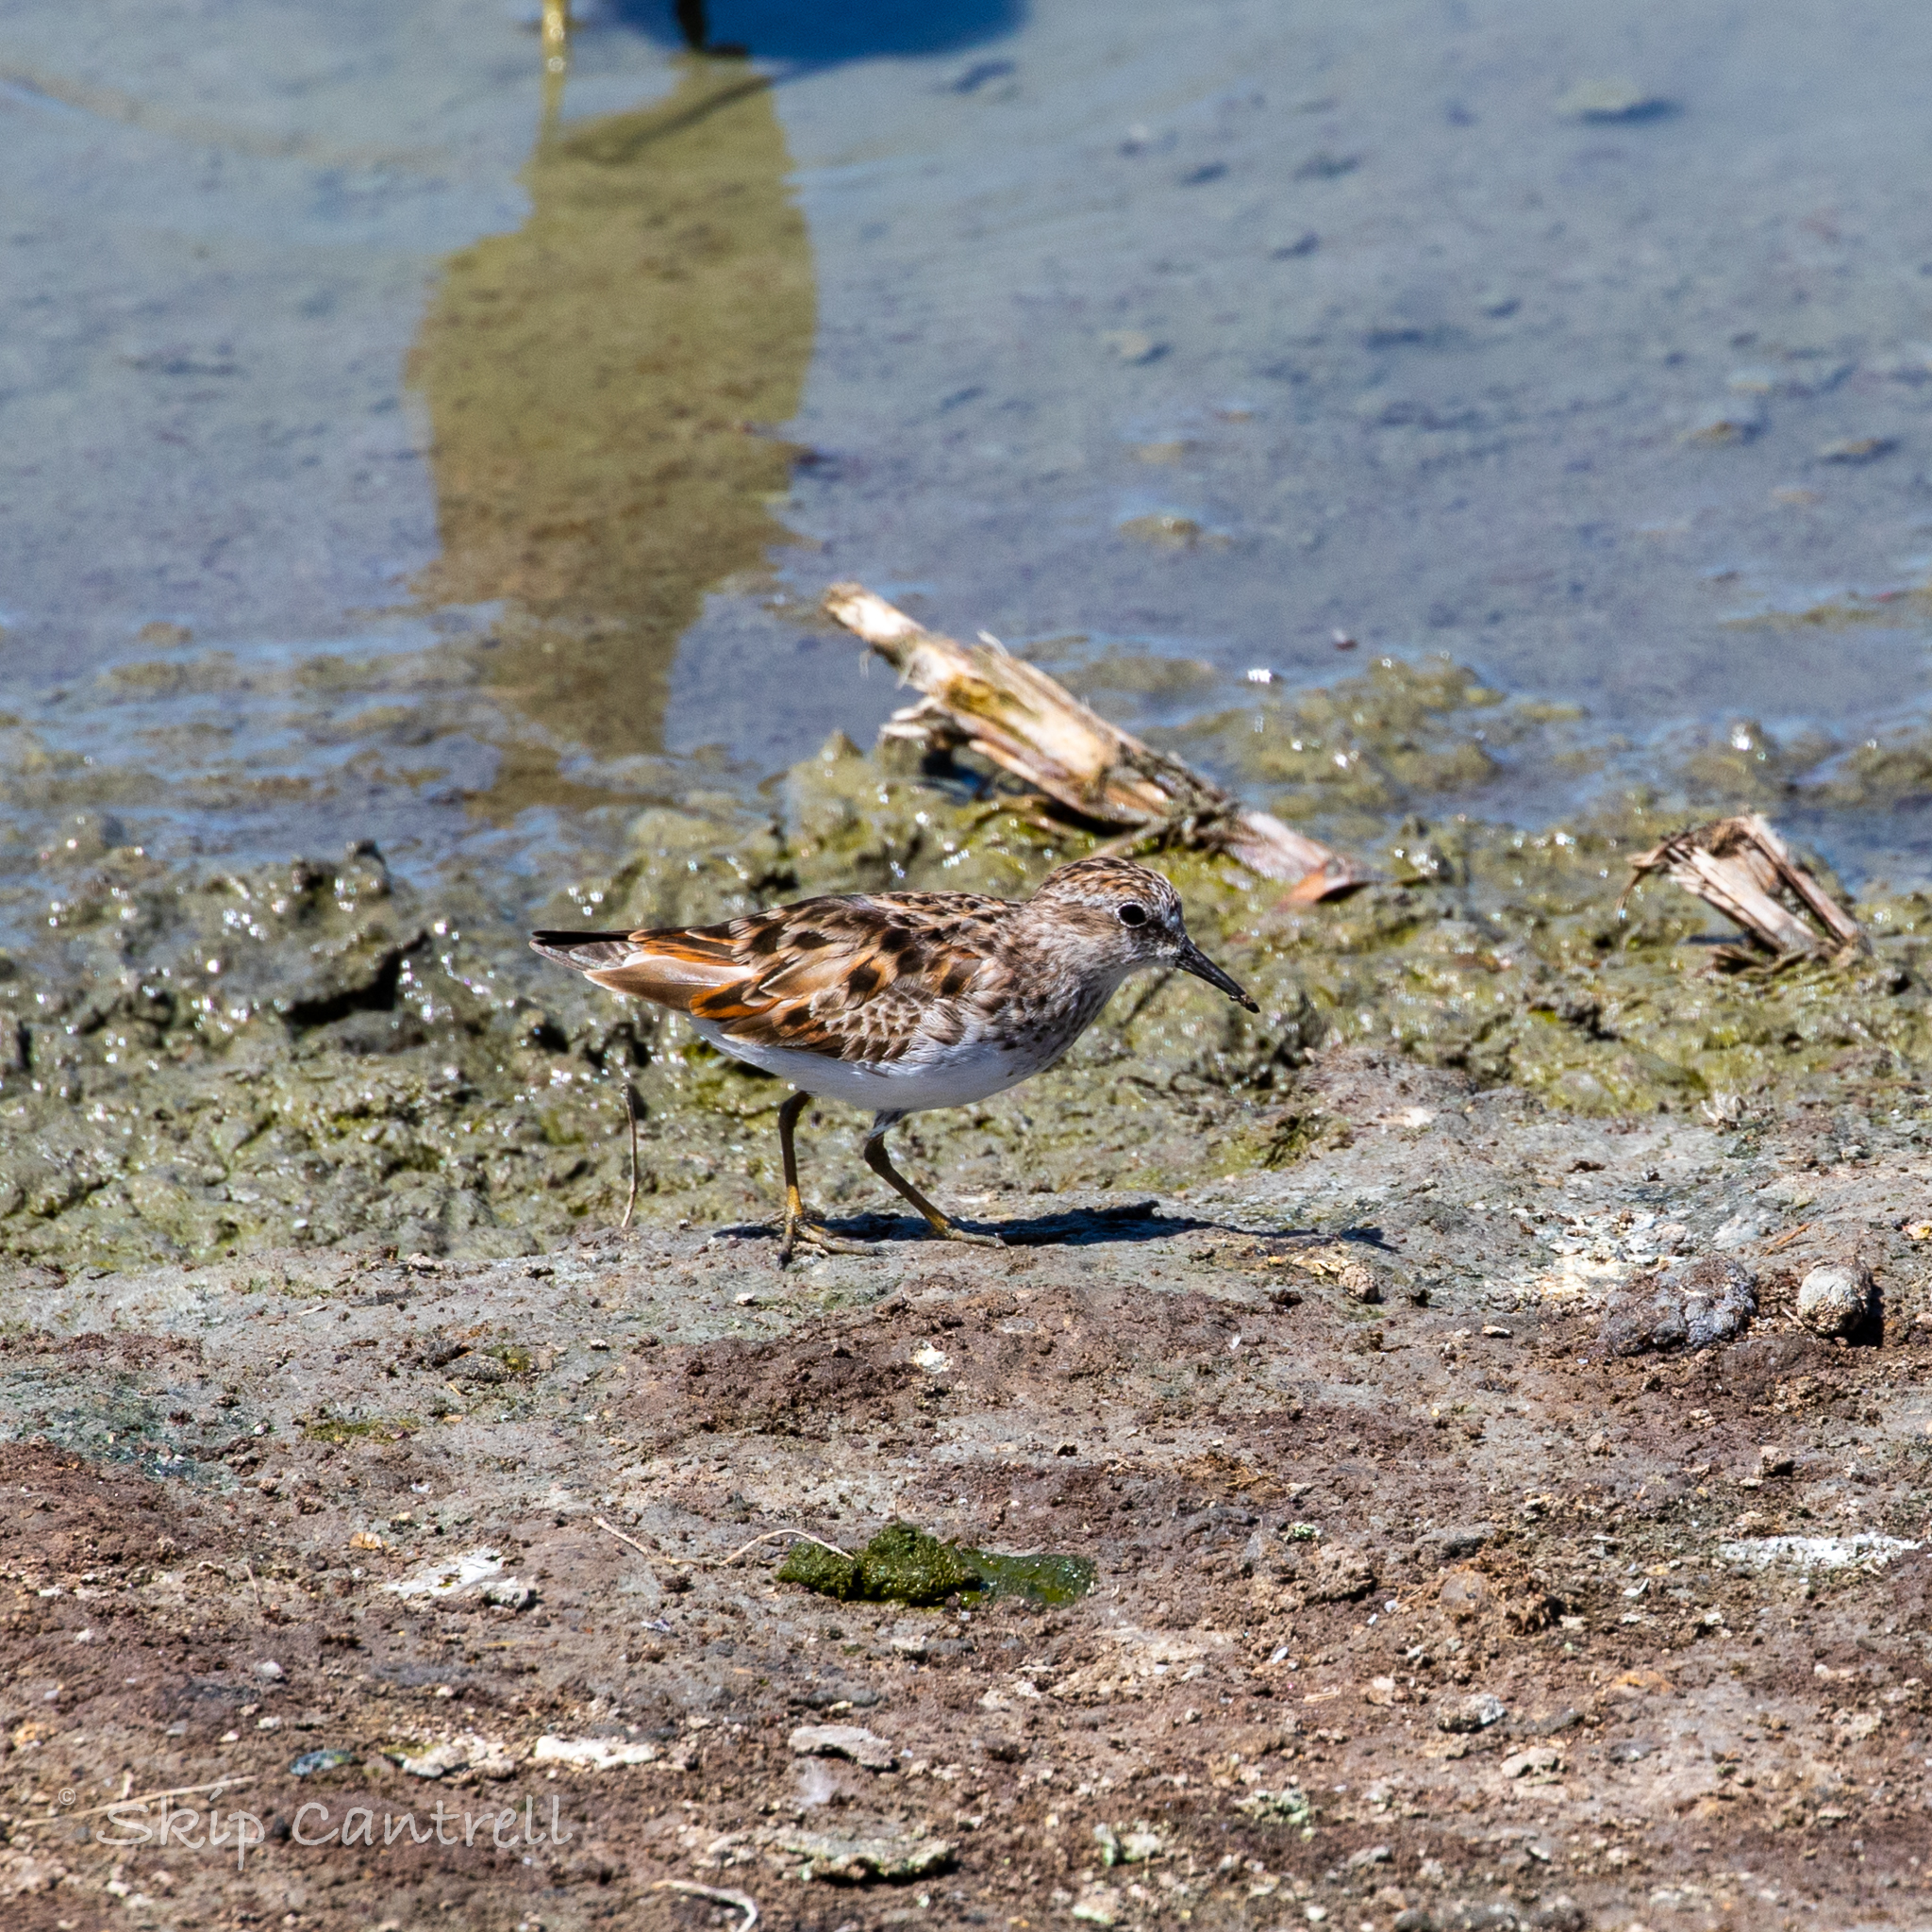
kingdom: Animalia
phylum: Chordata
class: Aves
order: Charadriiformes
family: Scolopacidae
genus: Calidris
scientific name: Calidris minutilla
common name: Least sandpiper
